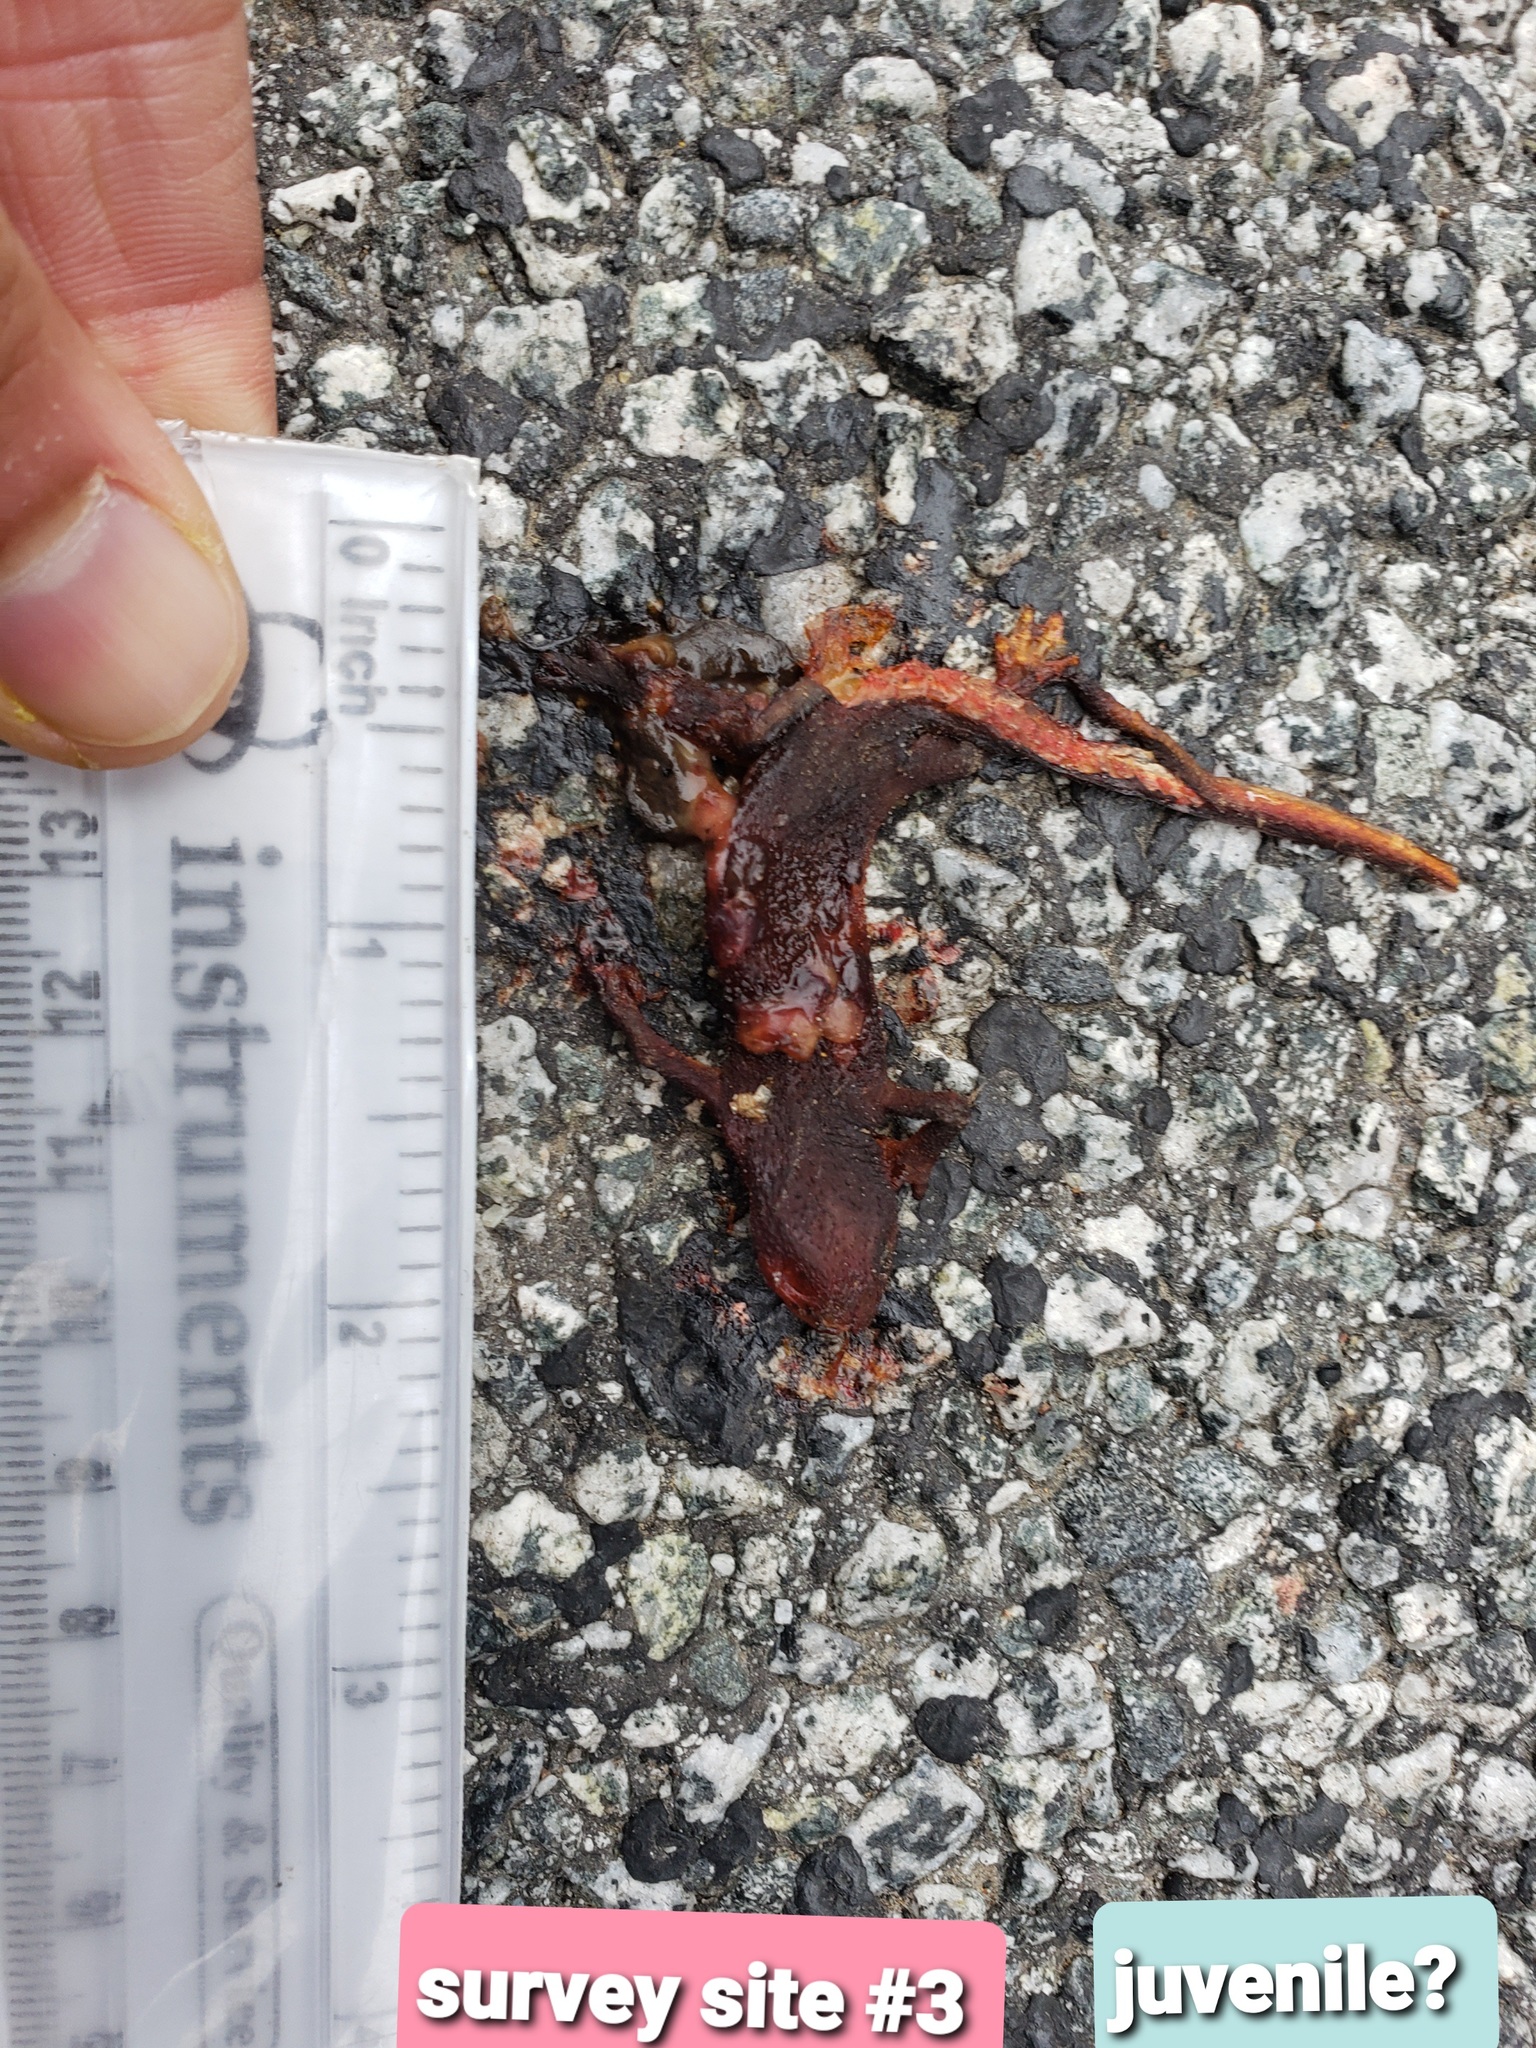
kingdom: Animalia
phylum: Chordata
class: Amphibia
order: Caudata
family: Salamandridae
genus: Taricha
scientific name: Taricha
